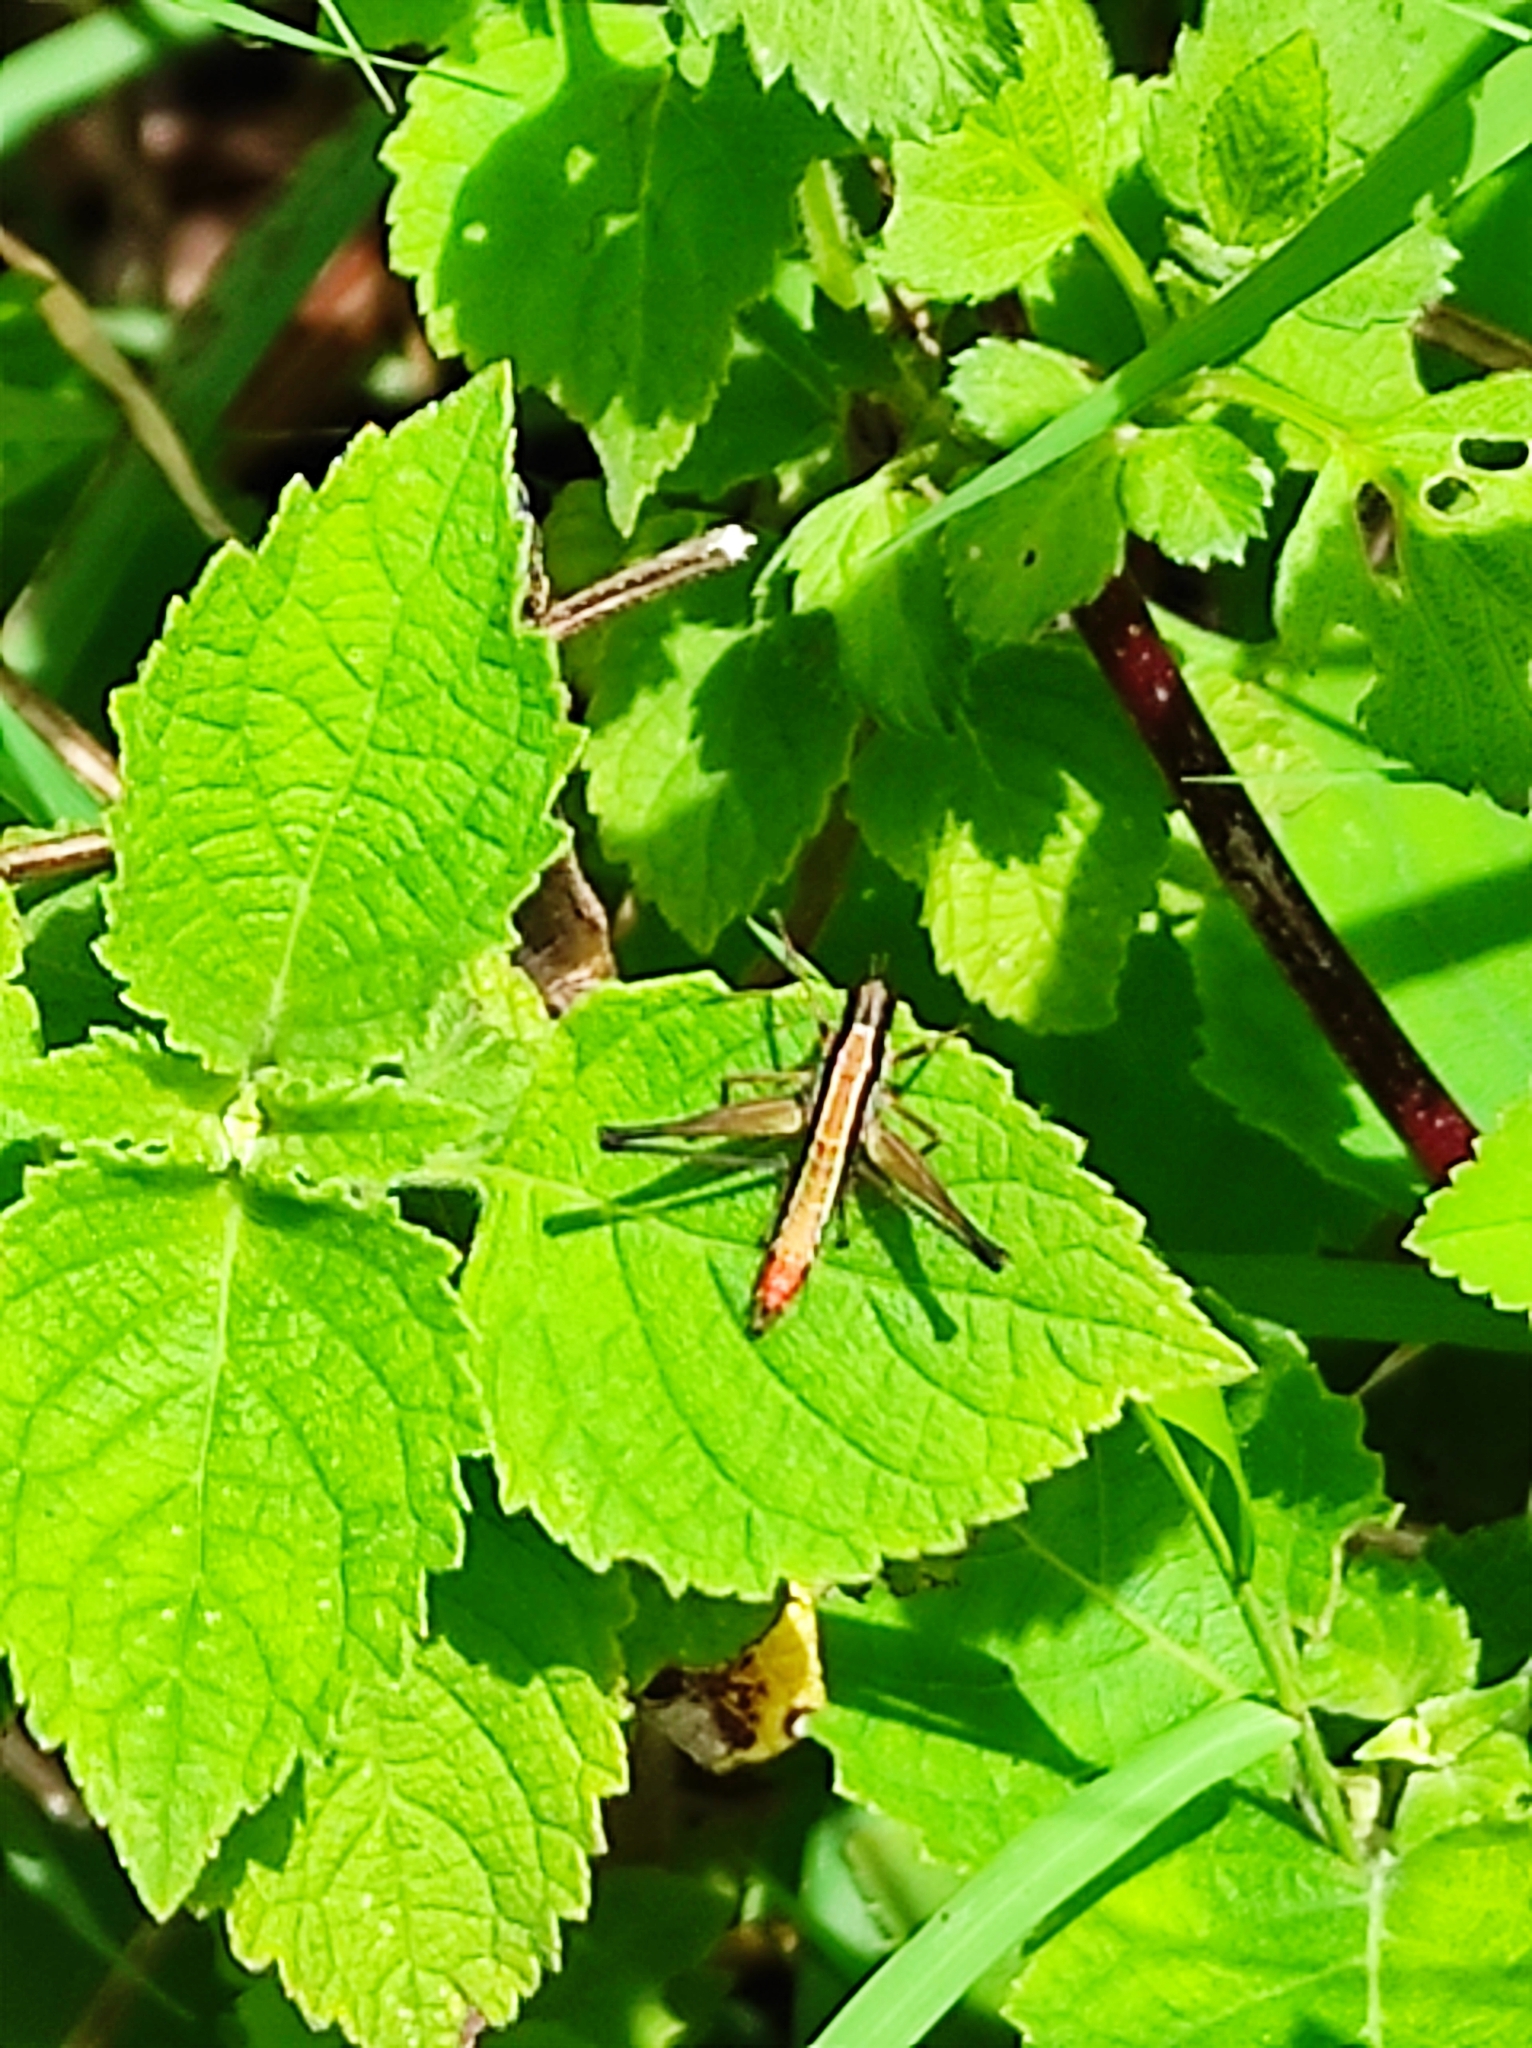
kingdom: Animalia
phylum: Arthropoda
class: Insecta
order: Orthoptera
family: Episactidae
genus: Episactus
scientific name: Episactus tristani
